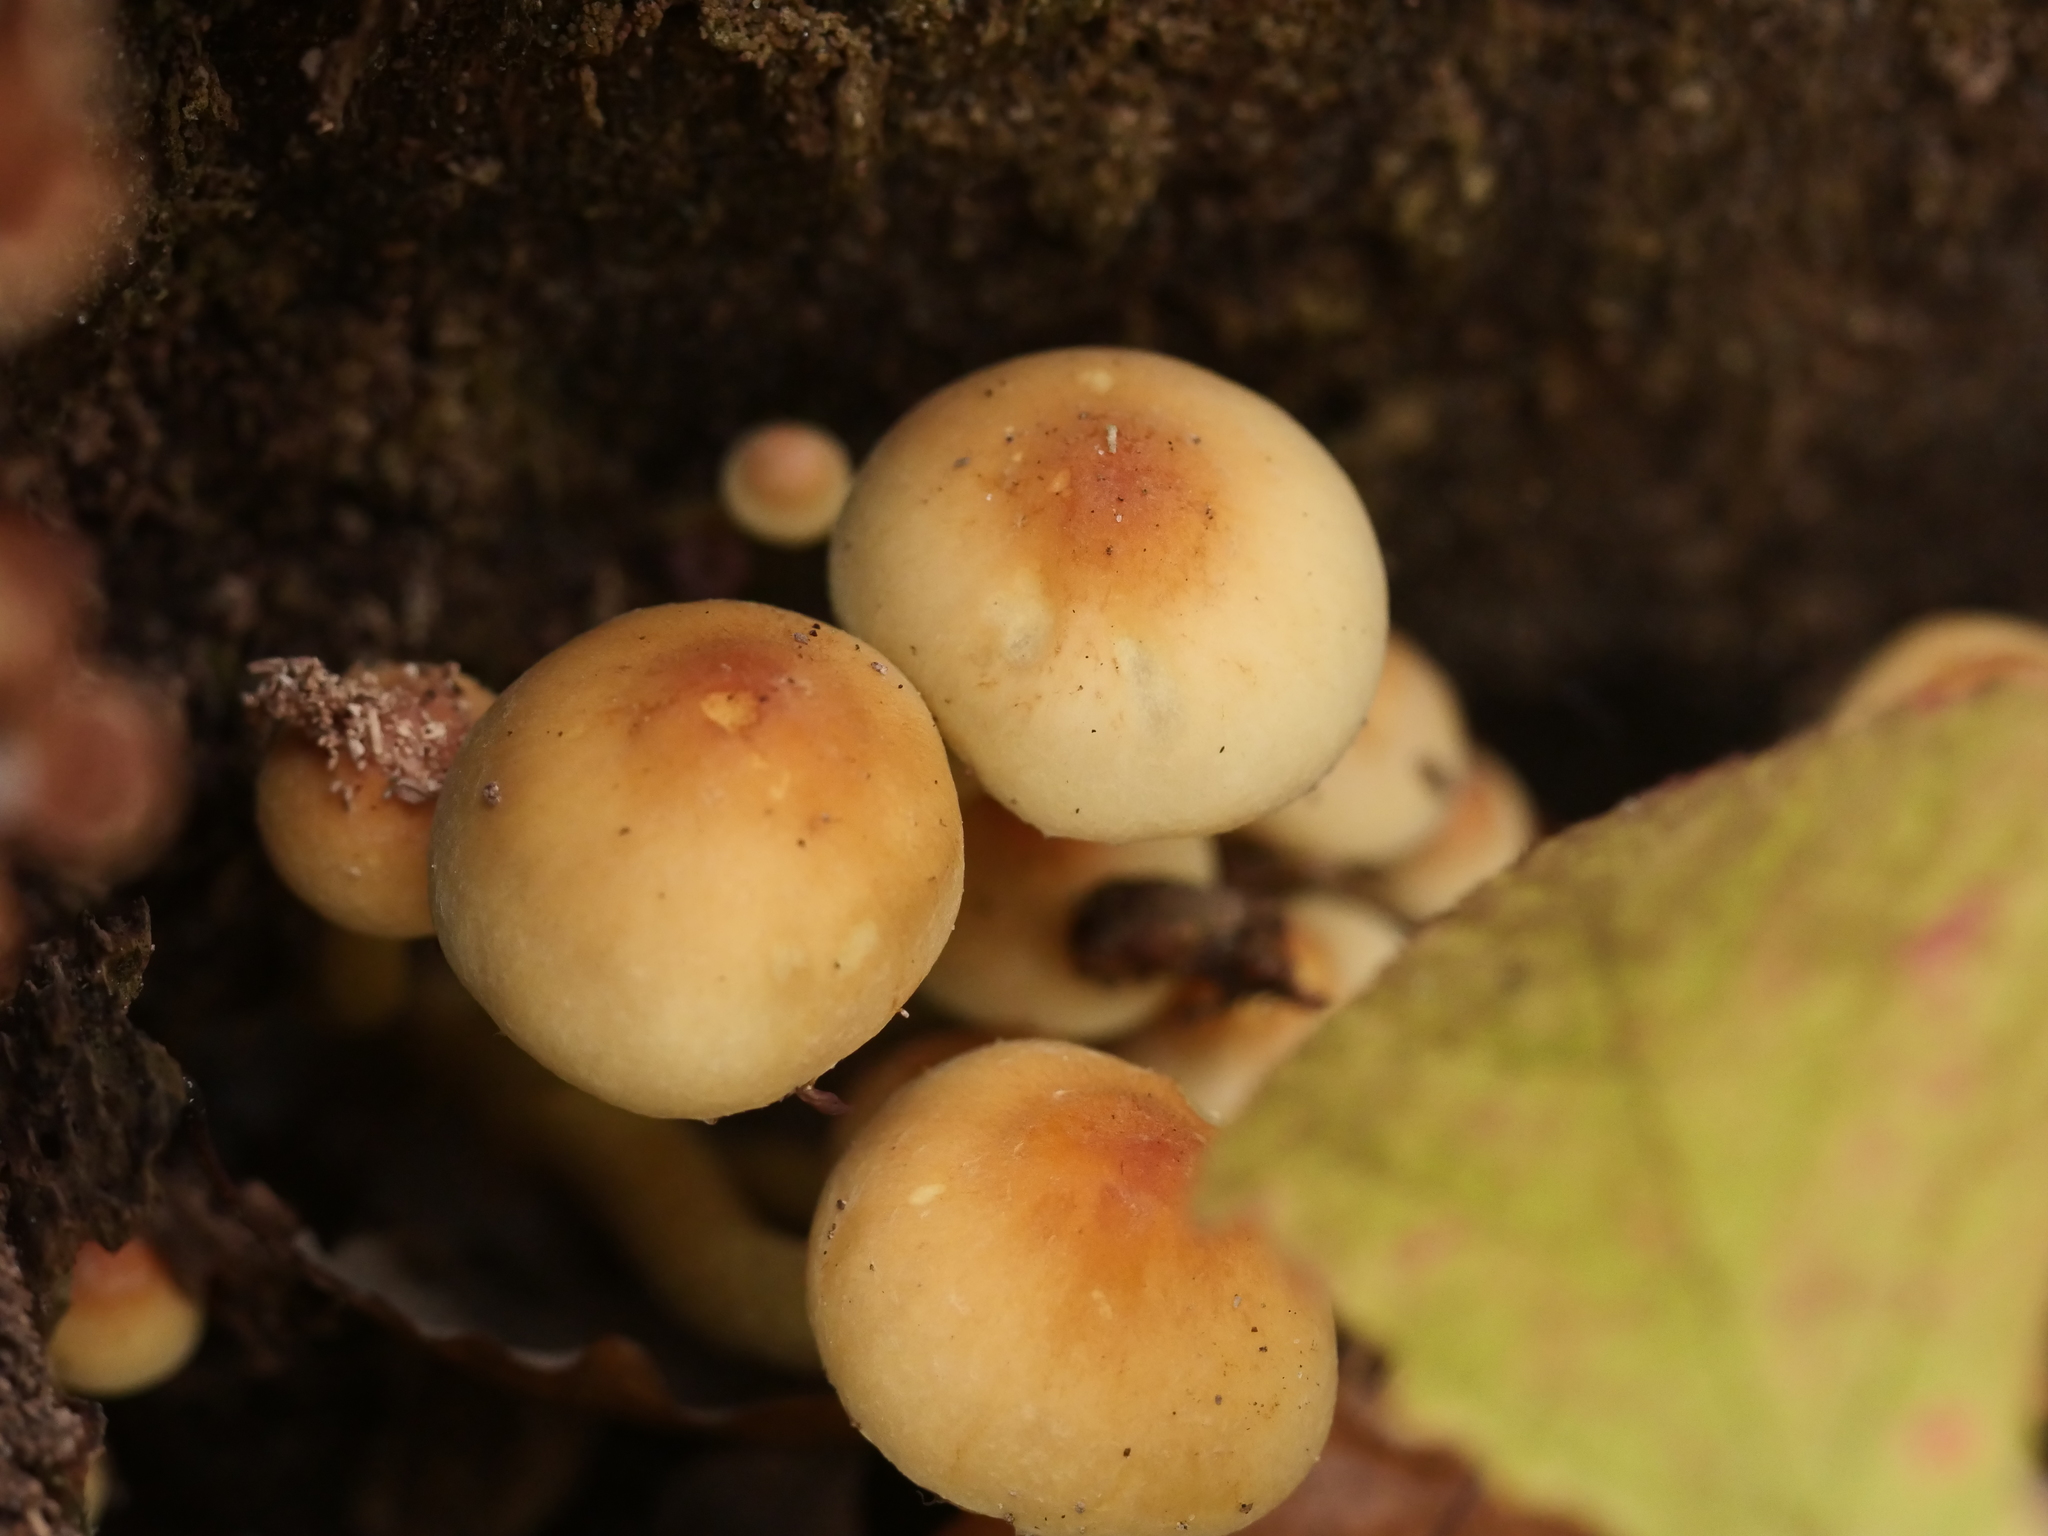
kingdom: Fungi
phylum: Basidiomycota
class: Agaricomycetes
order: Agaricales
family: Strophariaceae
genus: Hypholoma
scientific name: Hypholoma fasciculare
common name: Sulphur tuft
